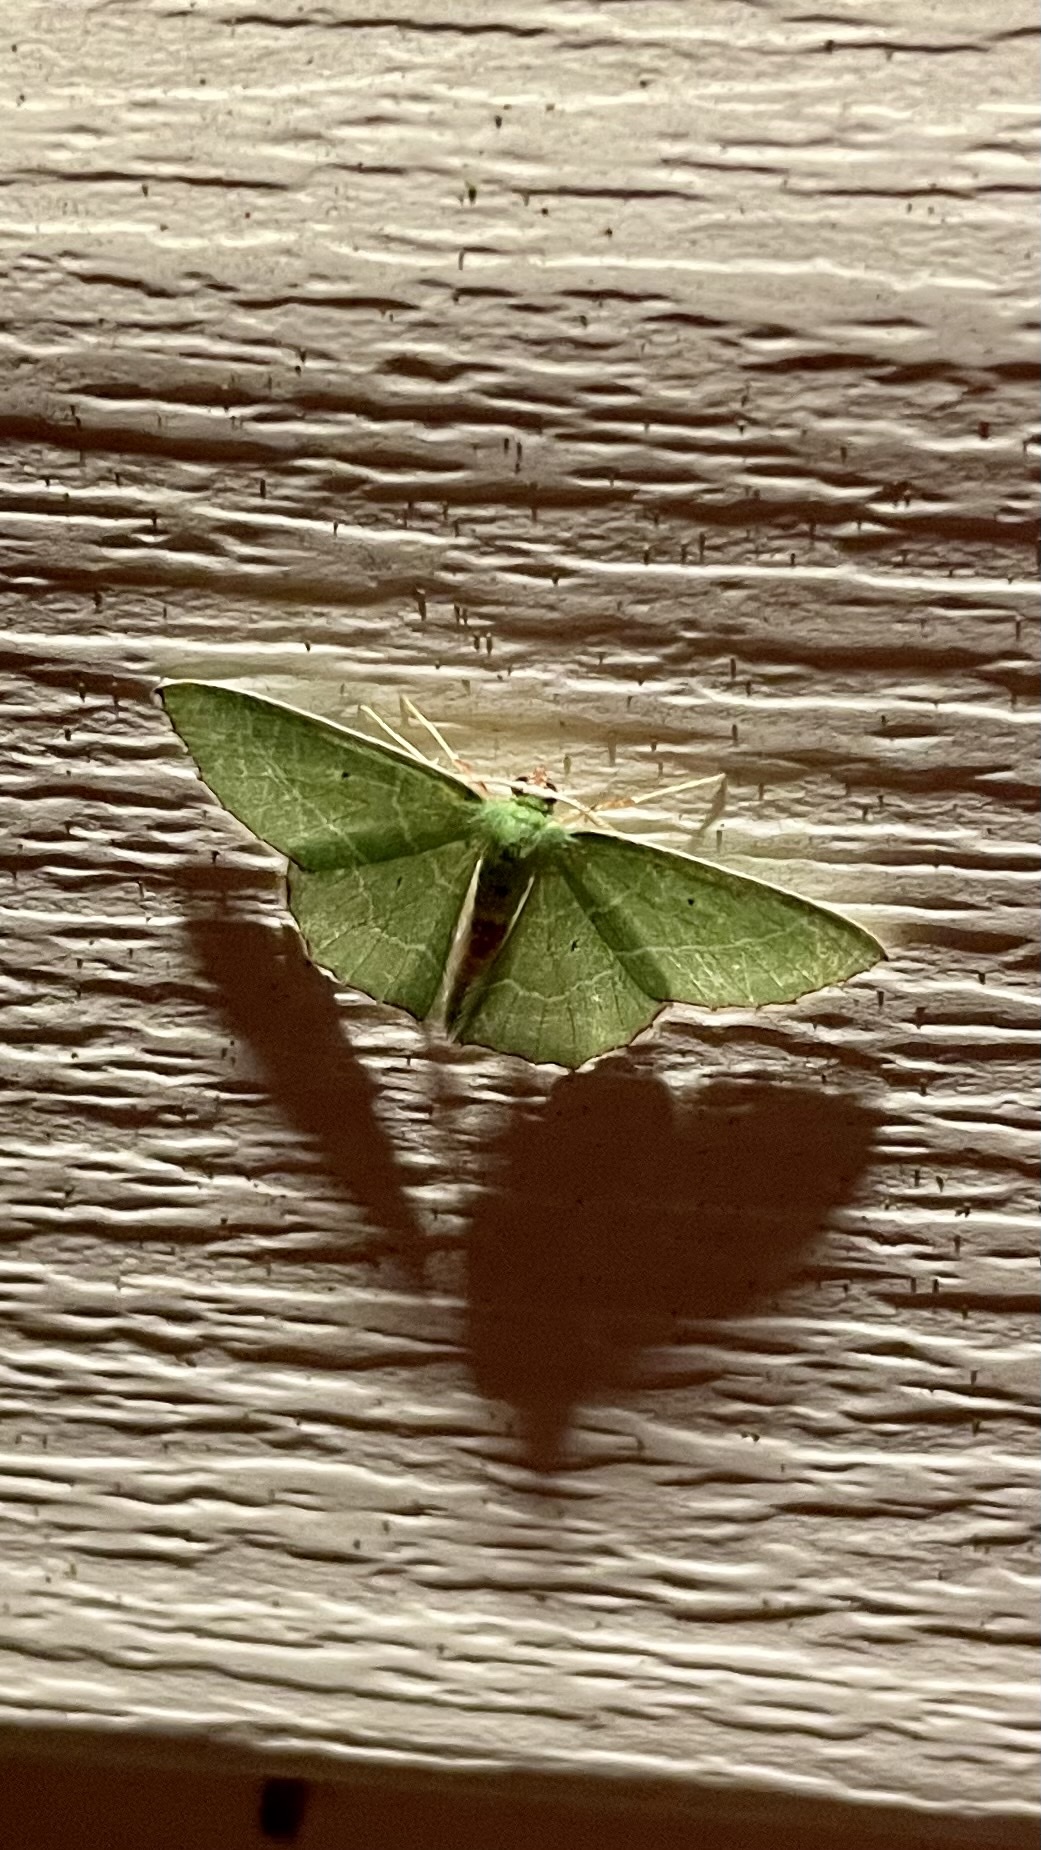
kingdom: Animalia
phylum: Arthropoda
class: Insecta
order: Lepidoptera
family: Geometridae
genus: Nemoria
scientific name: Nemoria mimosaria
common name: White-fringed emerald
